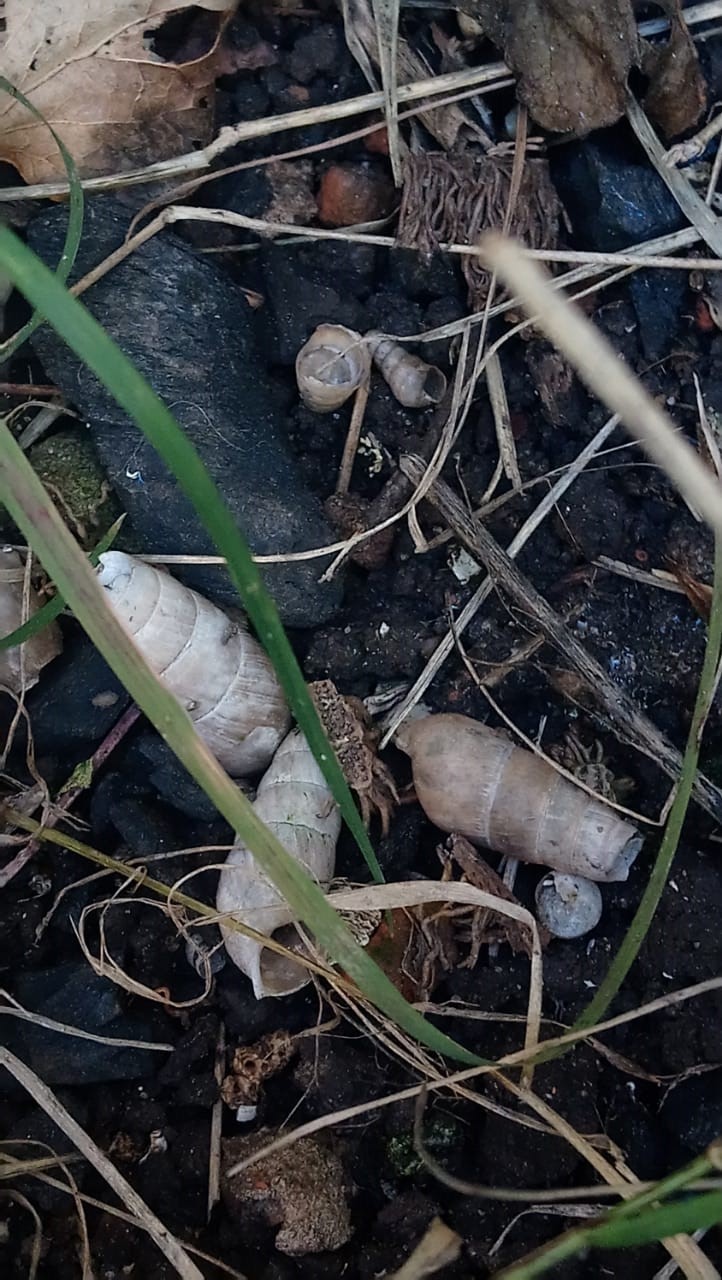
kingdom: Animalia
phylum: Mollusca
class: Gastropoda
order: Stylommatophora
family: Achatinidae
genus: Rumina
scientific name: Rumina decollata
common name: Decollate snail
